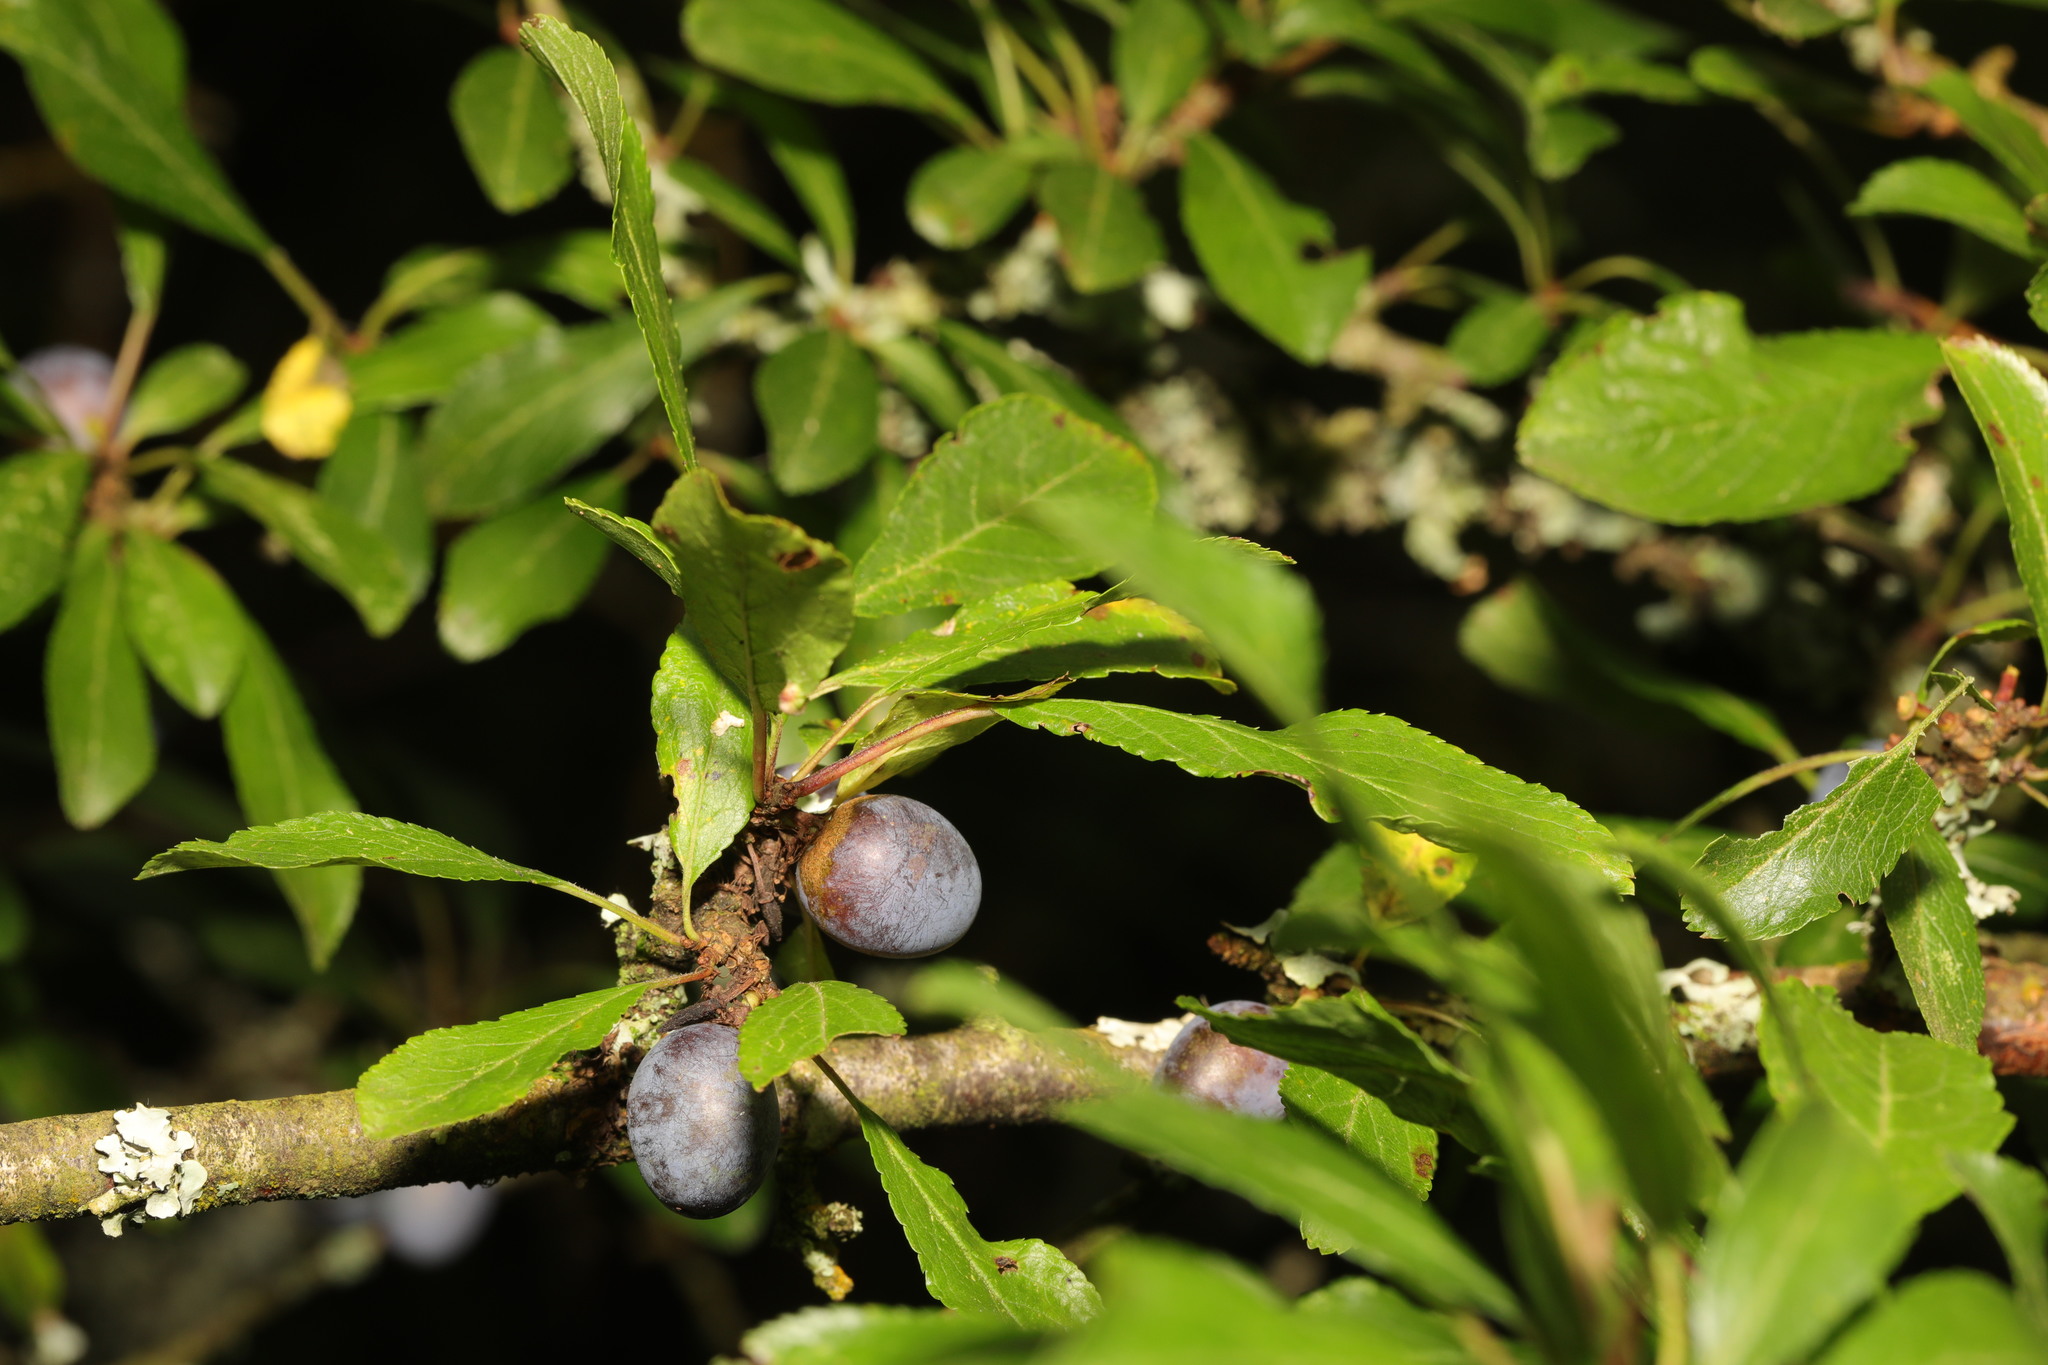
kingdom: Plantae
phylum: Tracheophyta
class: Magnoliopsida
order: Rosales
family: Rosaceae
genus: Prunus
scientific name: Prunus spinosa
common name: Blackthorn
